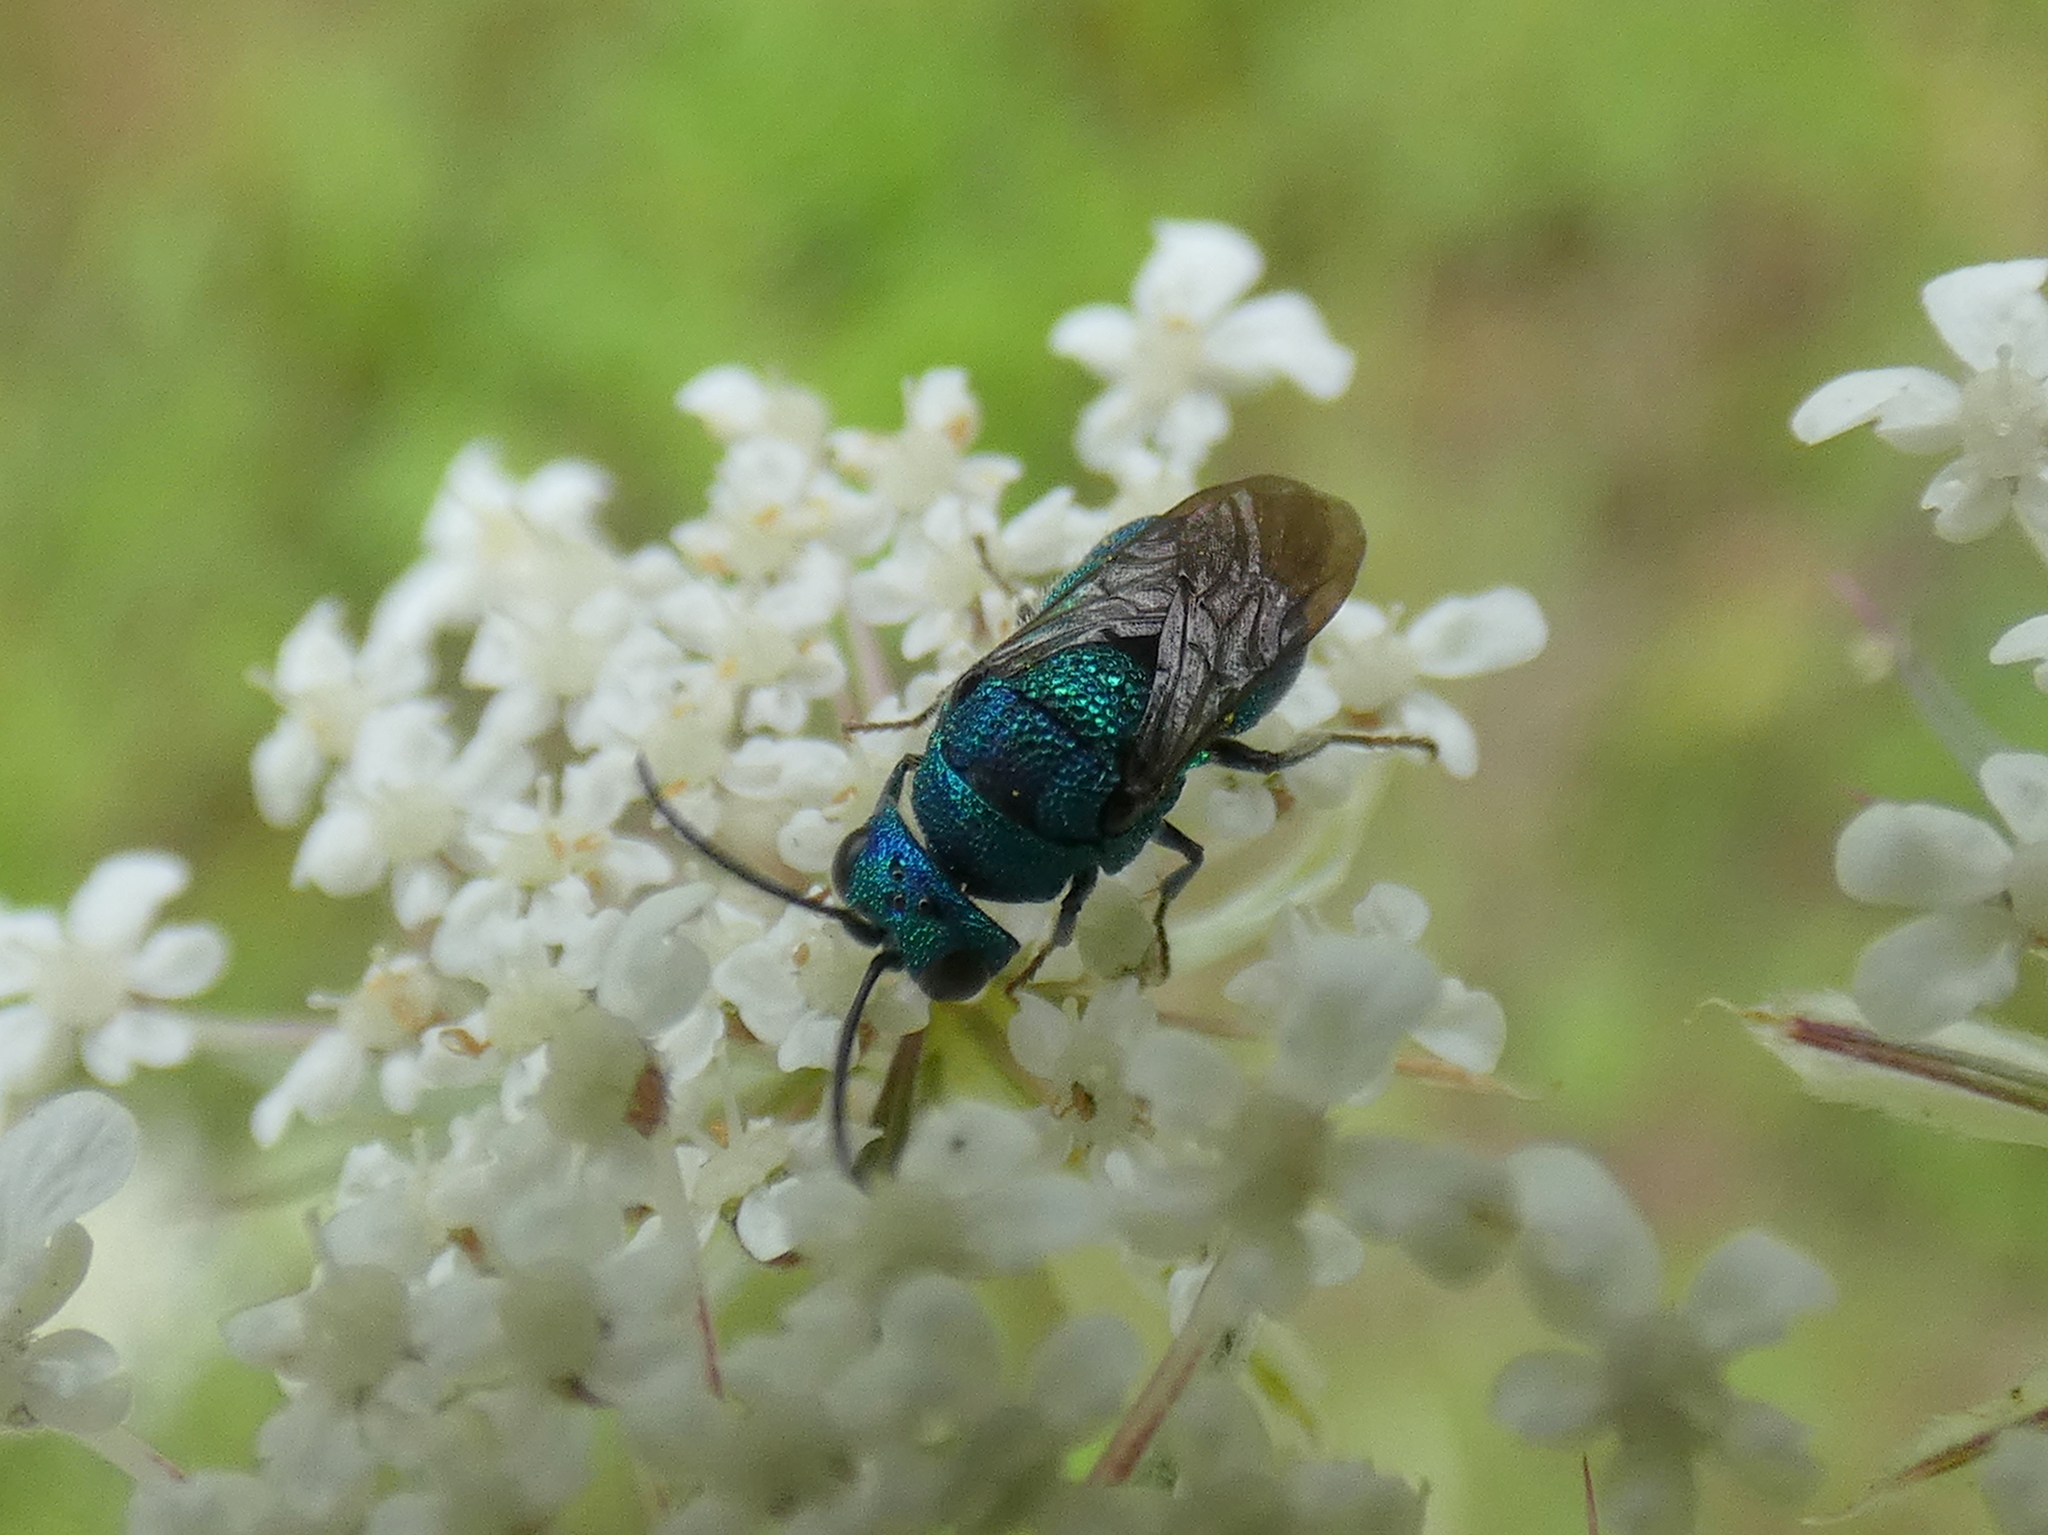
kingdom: Animalia
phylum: Arthropoda
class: Insecta
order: Hymenoptera
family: Chrysididae
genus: Holopyga
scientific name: Holopyga
